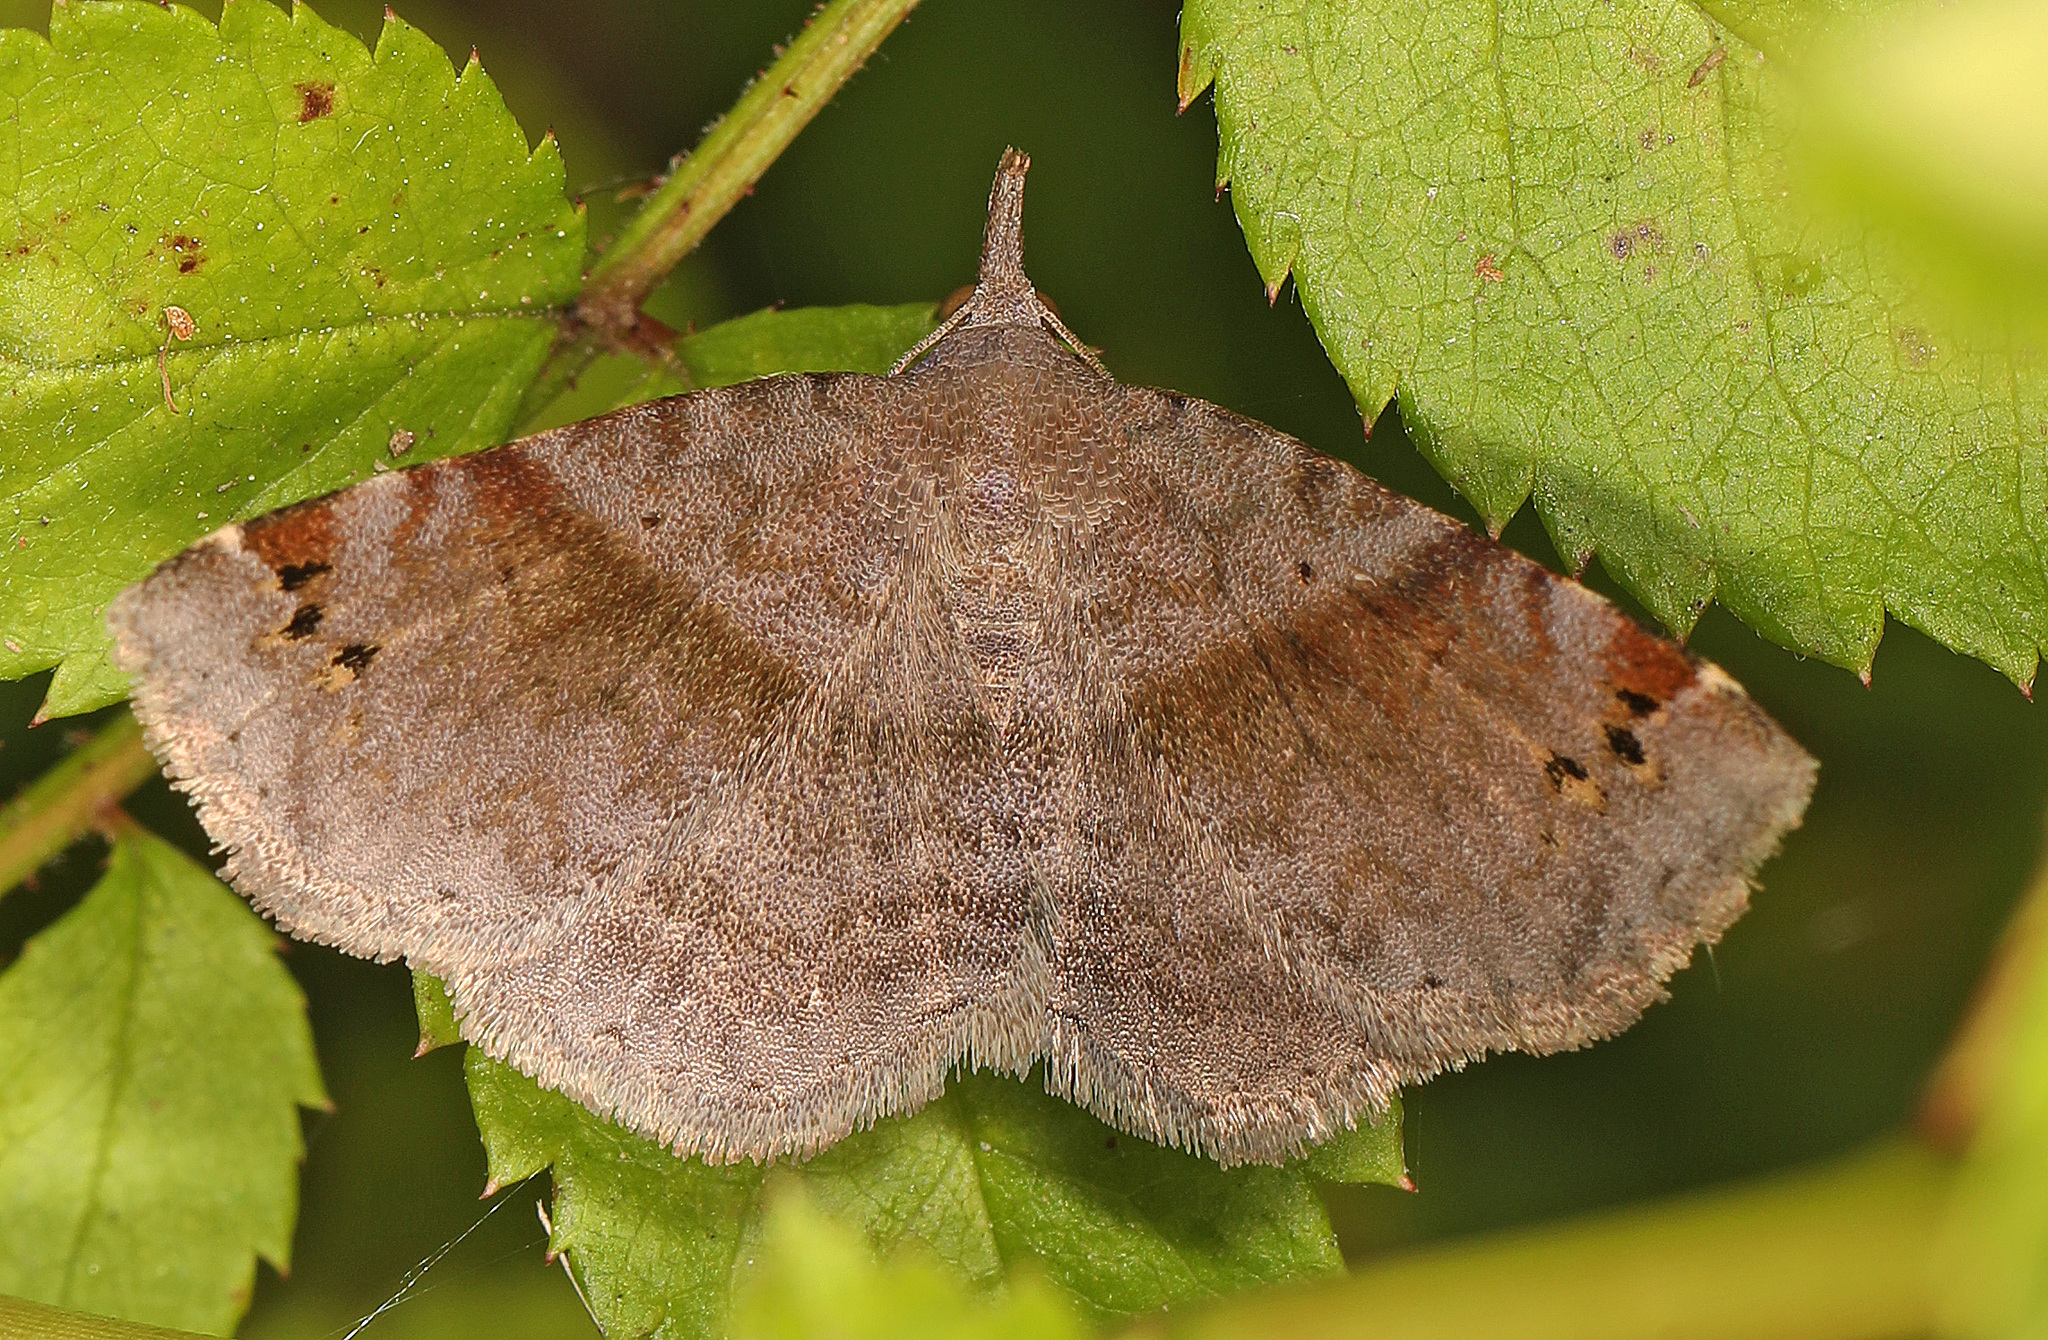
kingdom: Animalia
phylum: Arthropoda
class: Insecta
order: Lepidoptera
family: Erebidae
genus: Spargaloma
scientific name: Spargaloma sexpunctata
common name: Six-spotted gray
